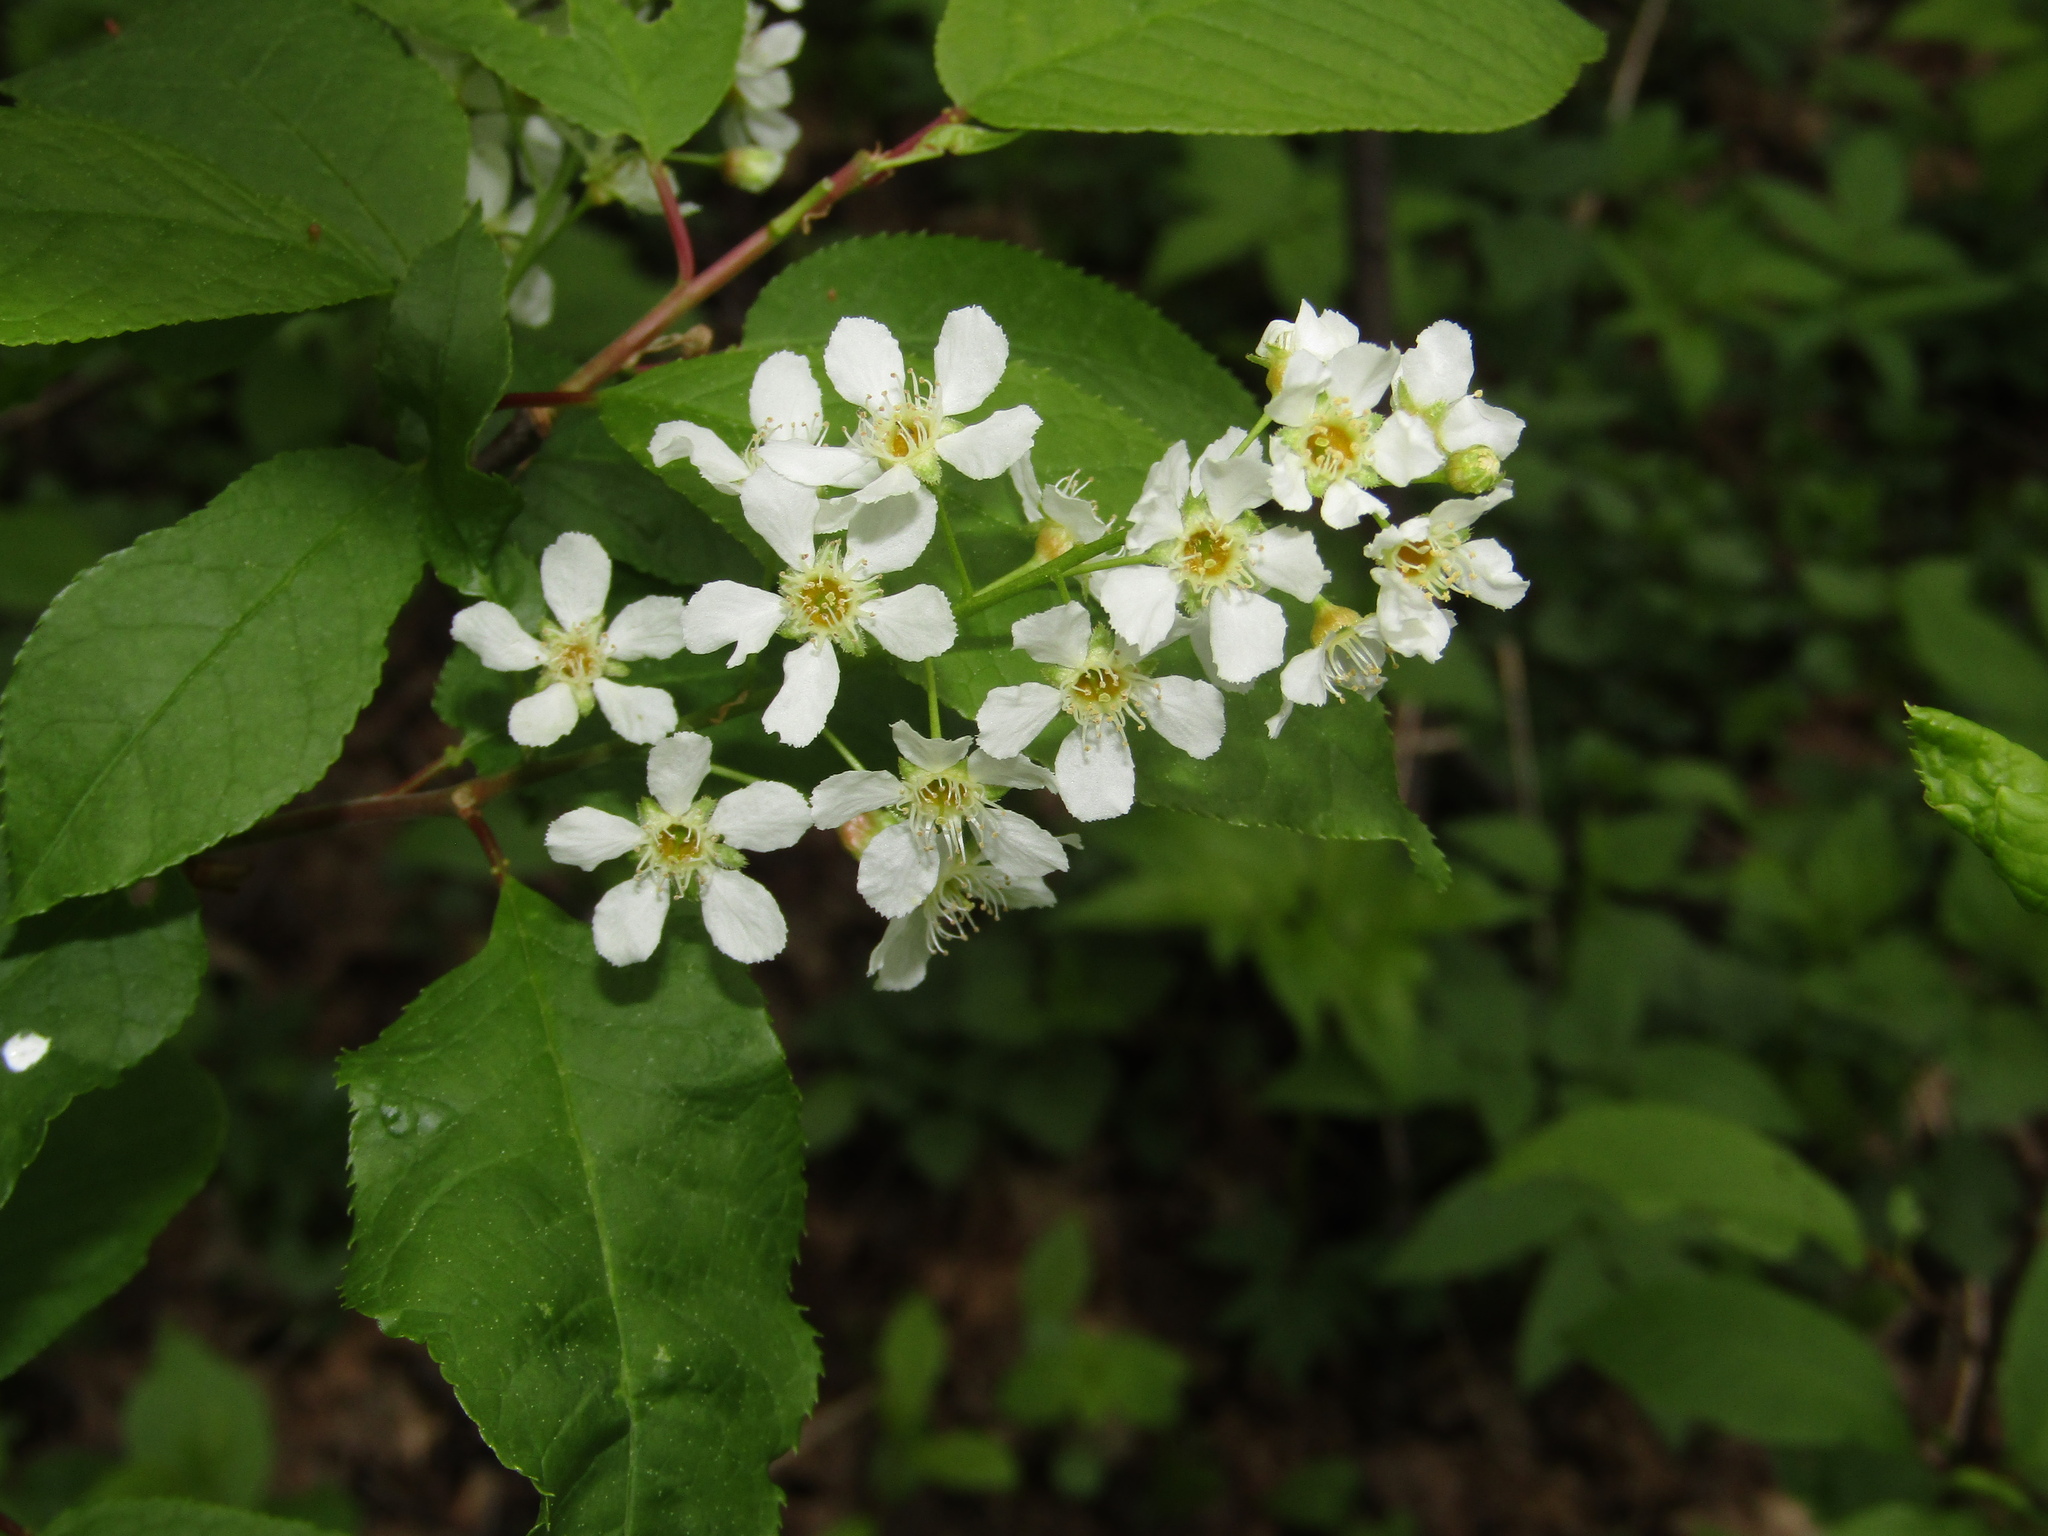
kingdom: Plantae
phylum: Tracheophyta
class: Magnoliopsida
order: Rosales
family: Rosaceae
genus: Prunus
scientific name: Prunus padus
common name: Bird cherry
